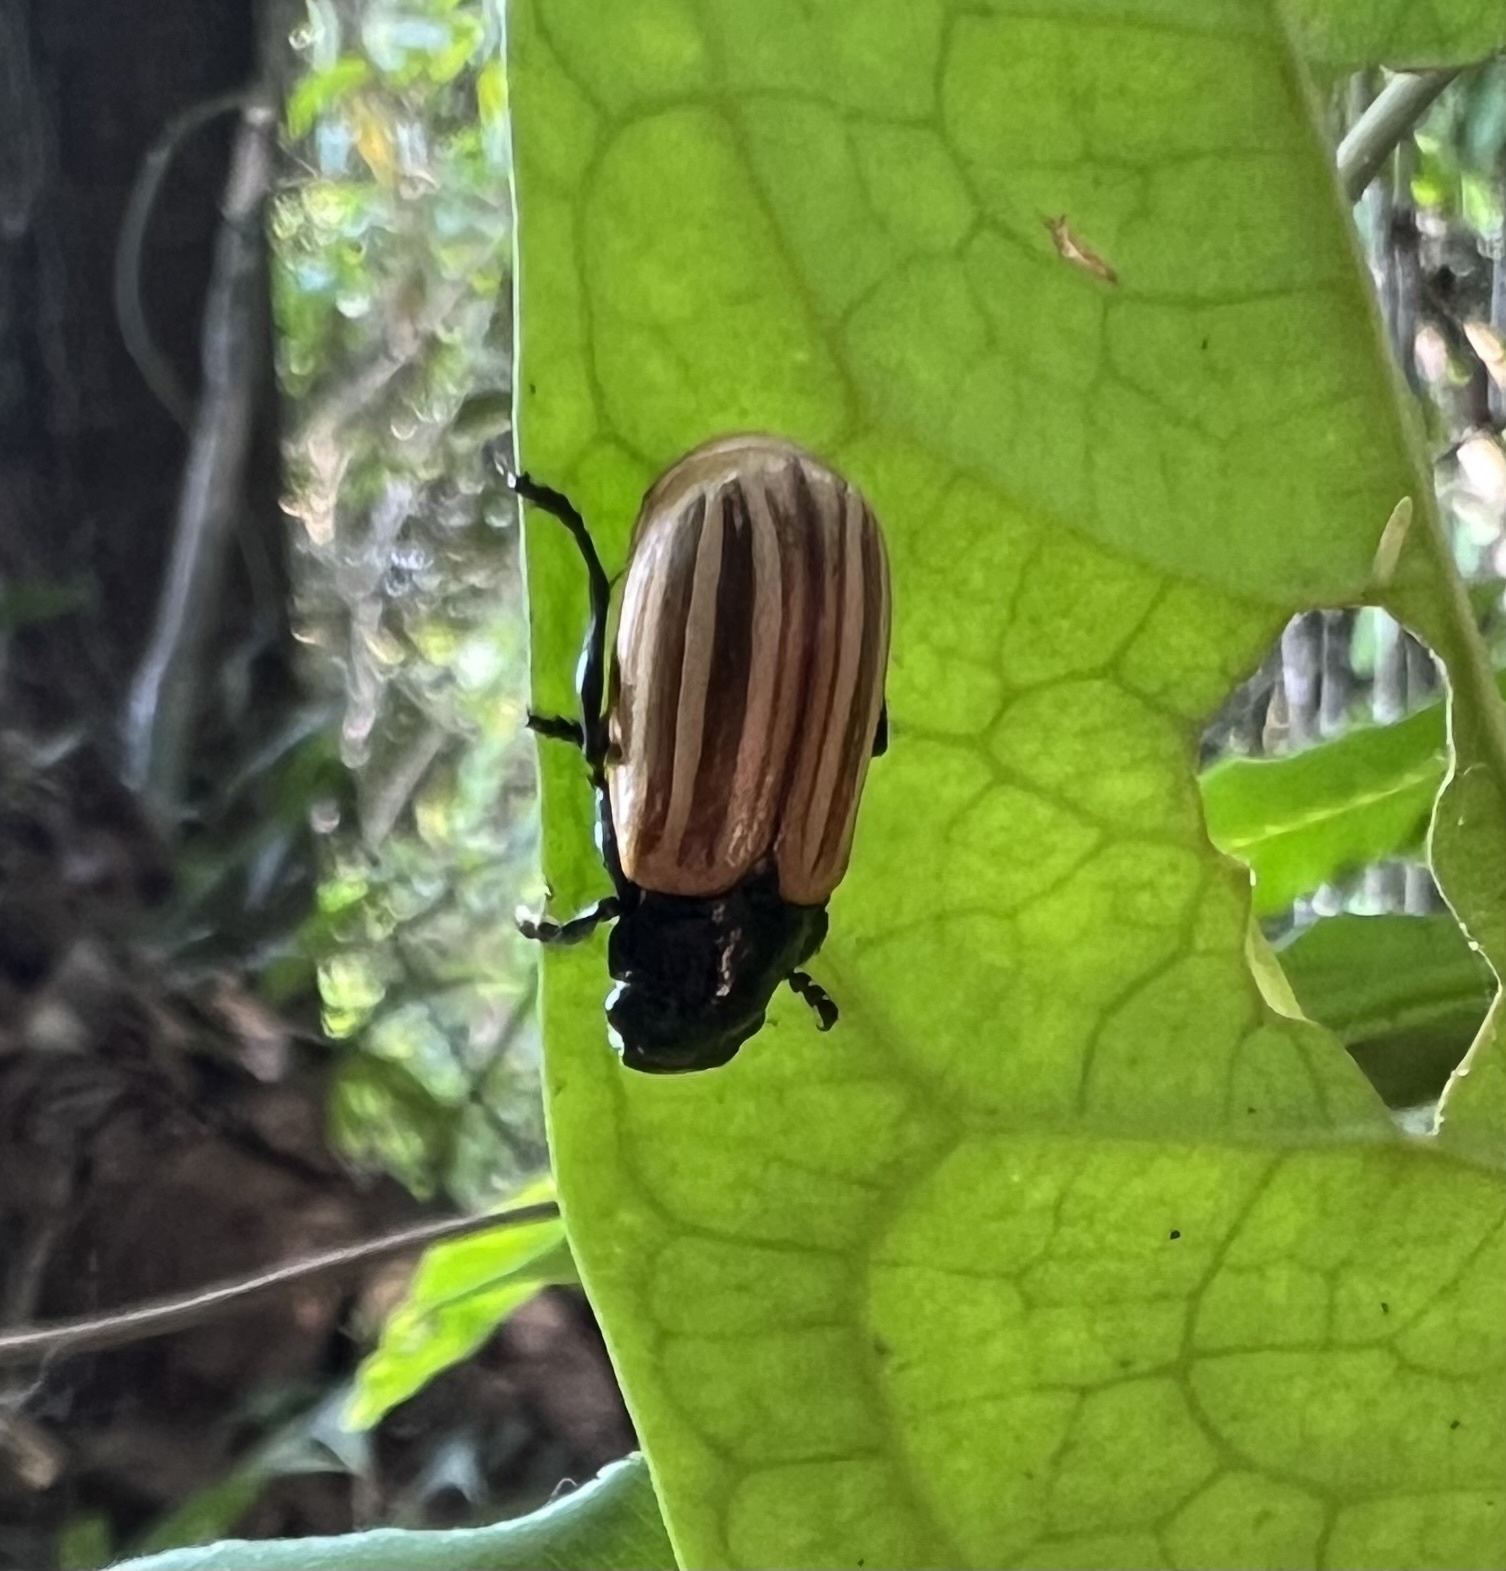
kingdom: Animalia
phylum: Arthropoda
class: Insecta
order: Coleoptera
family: Scarabaeidae
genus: Bolax
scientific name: Bolax magna
